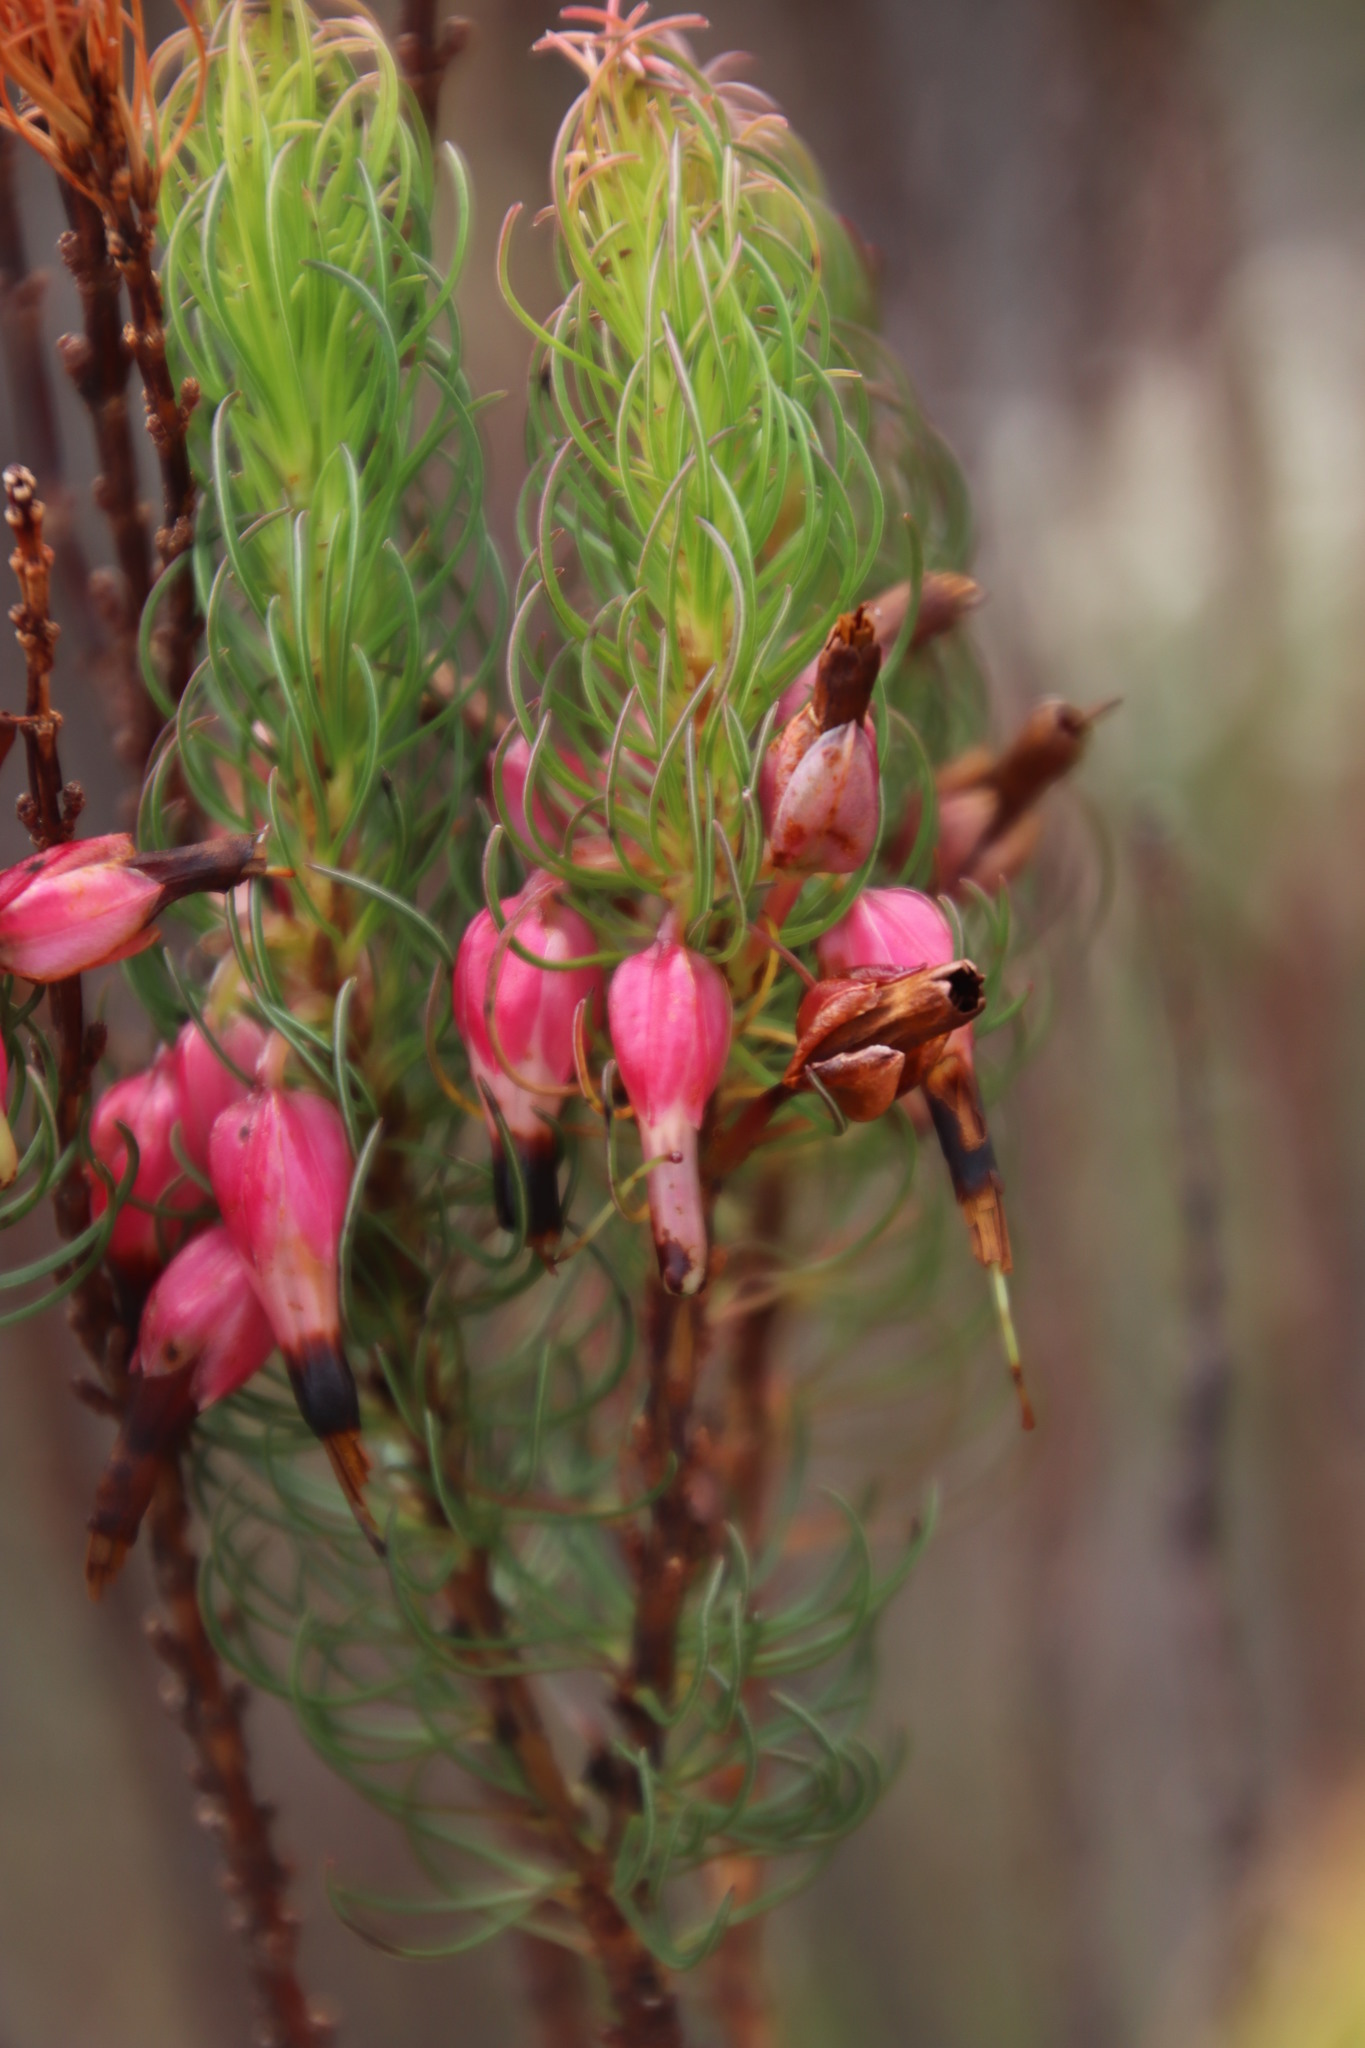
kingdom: Plantae
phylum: Tracheophyta
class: Magnoliopsida
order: Ericales
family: Ericaceae
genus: Erica
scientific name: Erica plukenetii
